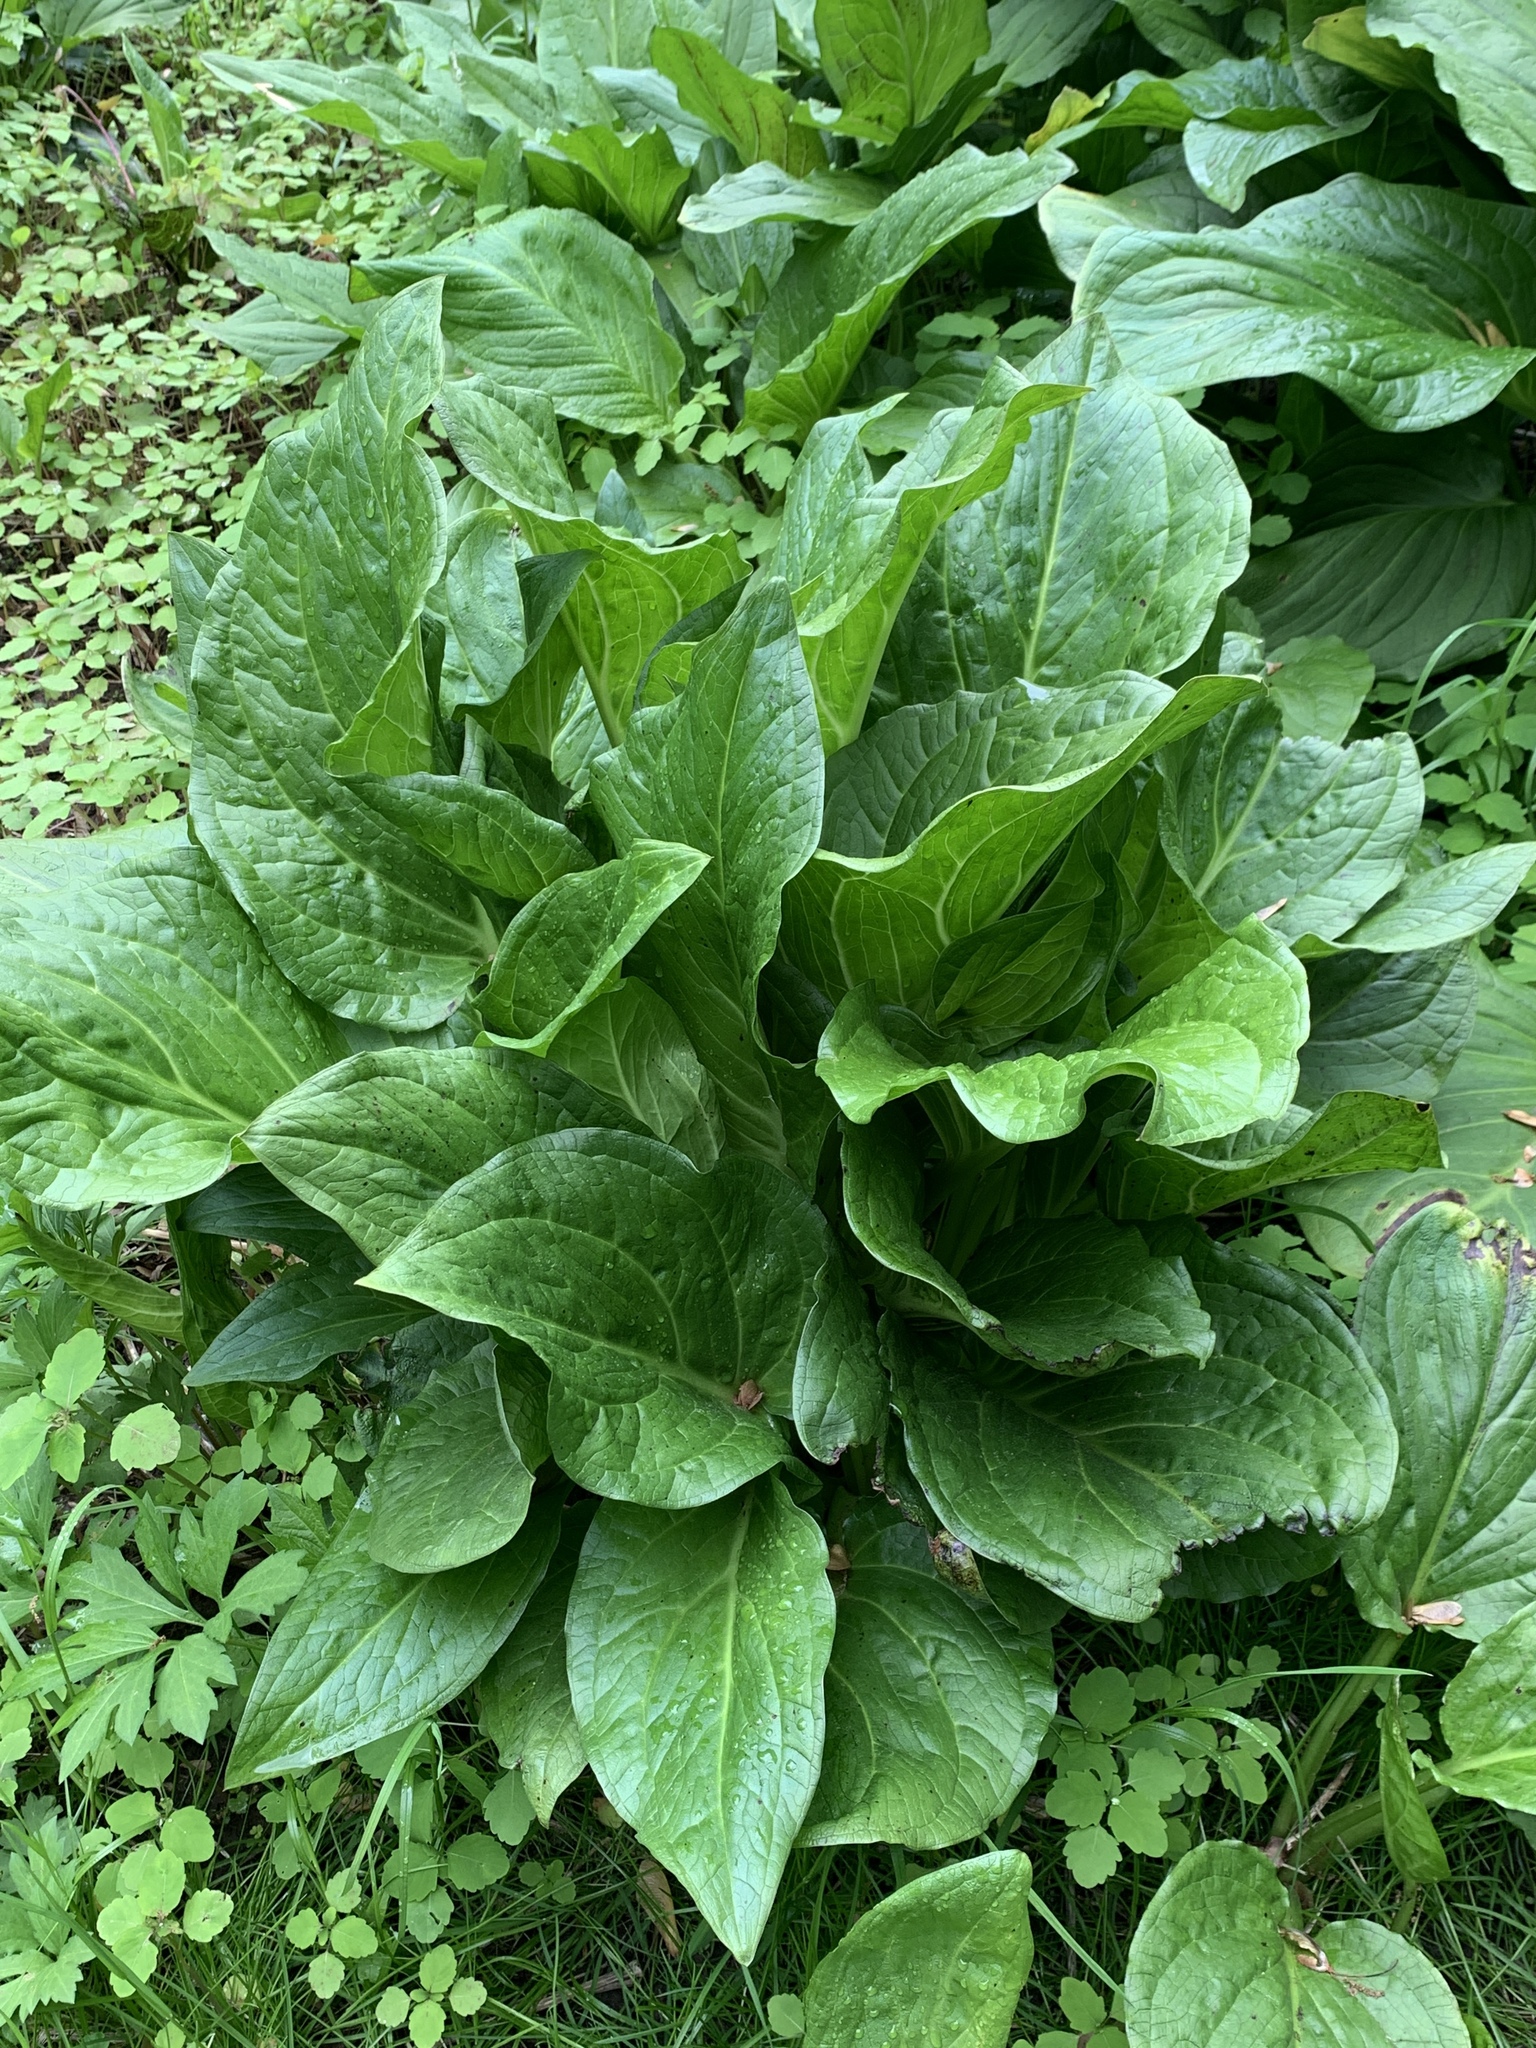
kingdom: Plantae
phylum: Tracheophyta
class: Liliopsida
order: Alismatales
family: Araceae
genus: Symplocarpus
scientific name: Symplocarpus foetidus
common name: Eastern skunk cabbage
